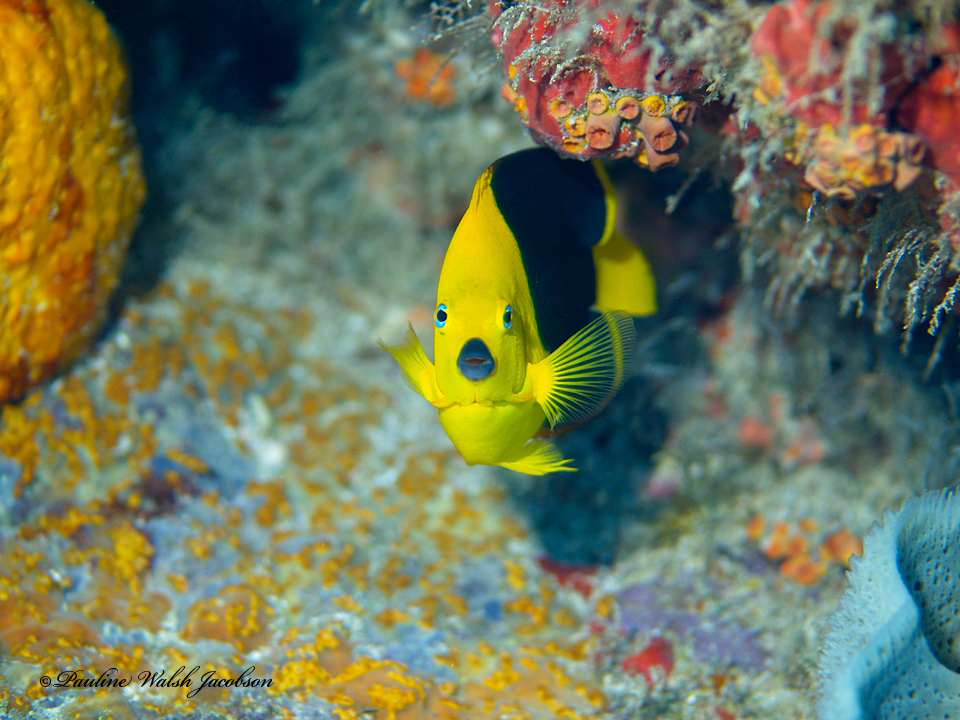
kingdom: Animalia
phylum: Chordata
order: Perciformes
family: Pomacanthidae
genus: Holacanthus
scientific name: Holacanthus tricolor
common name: Rock beauty
